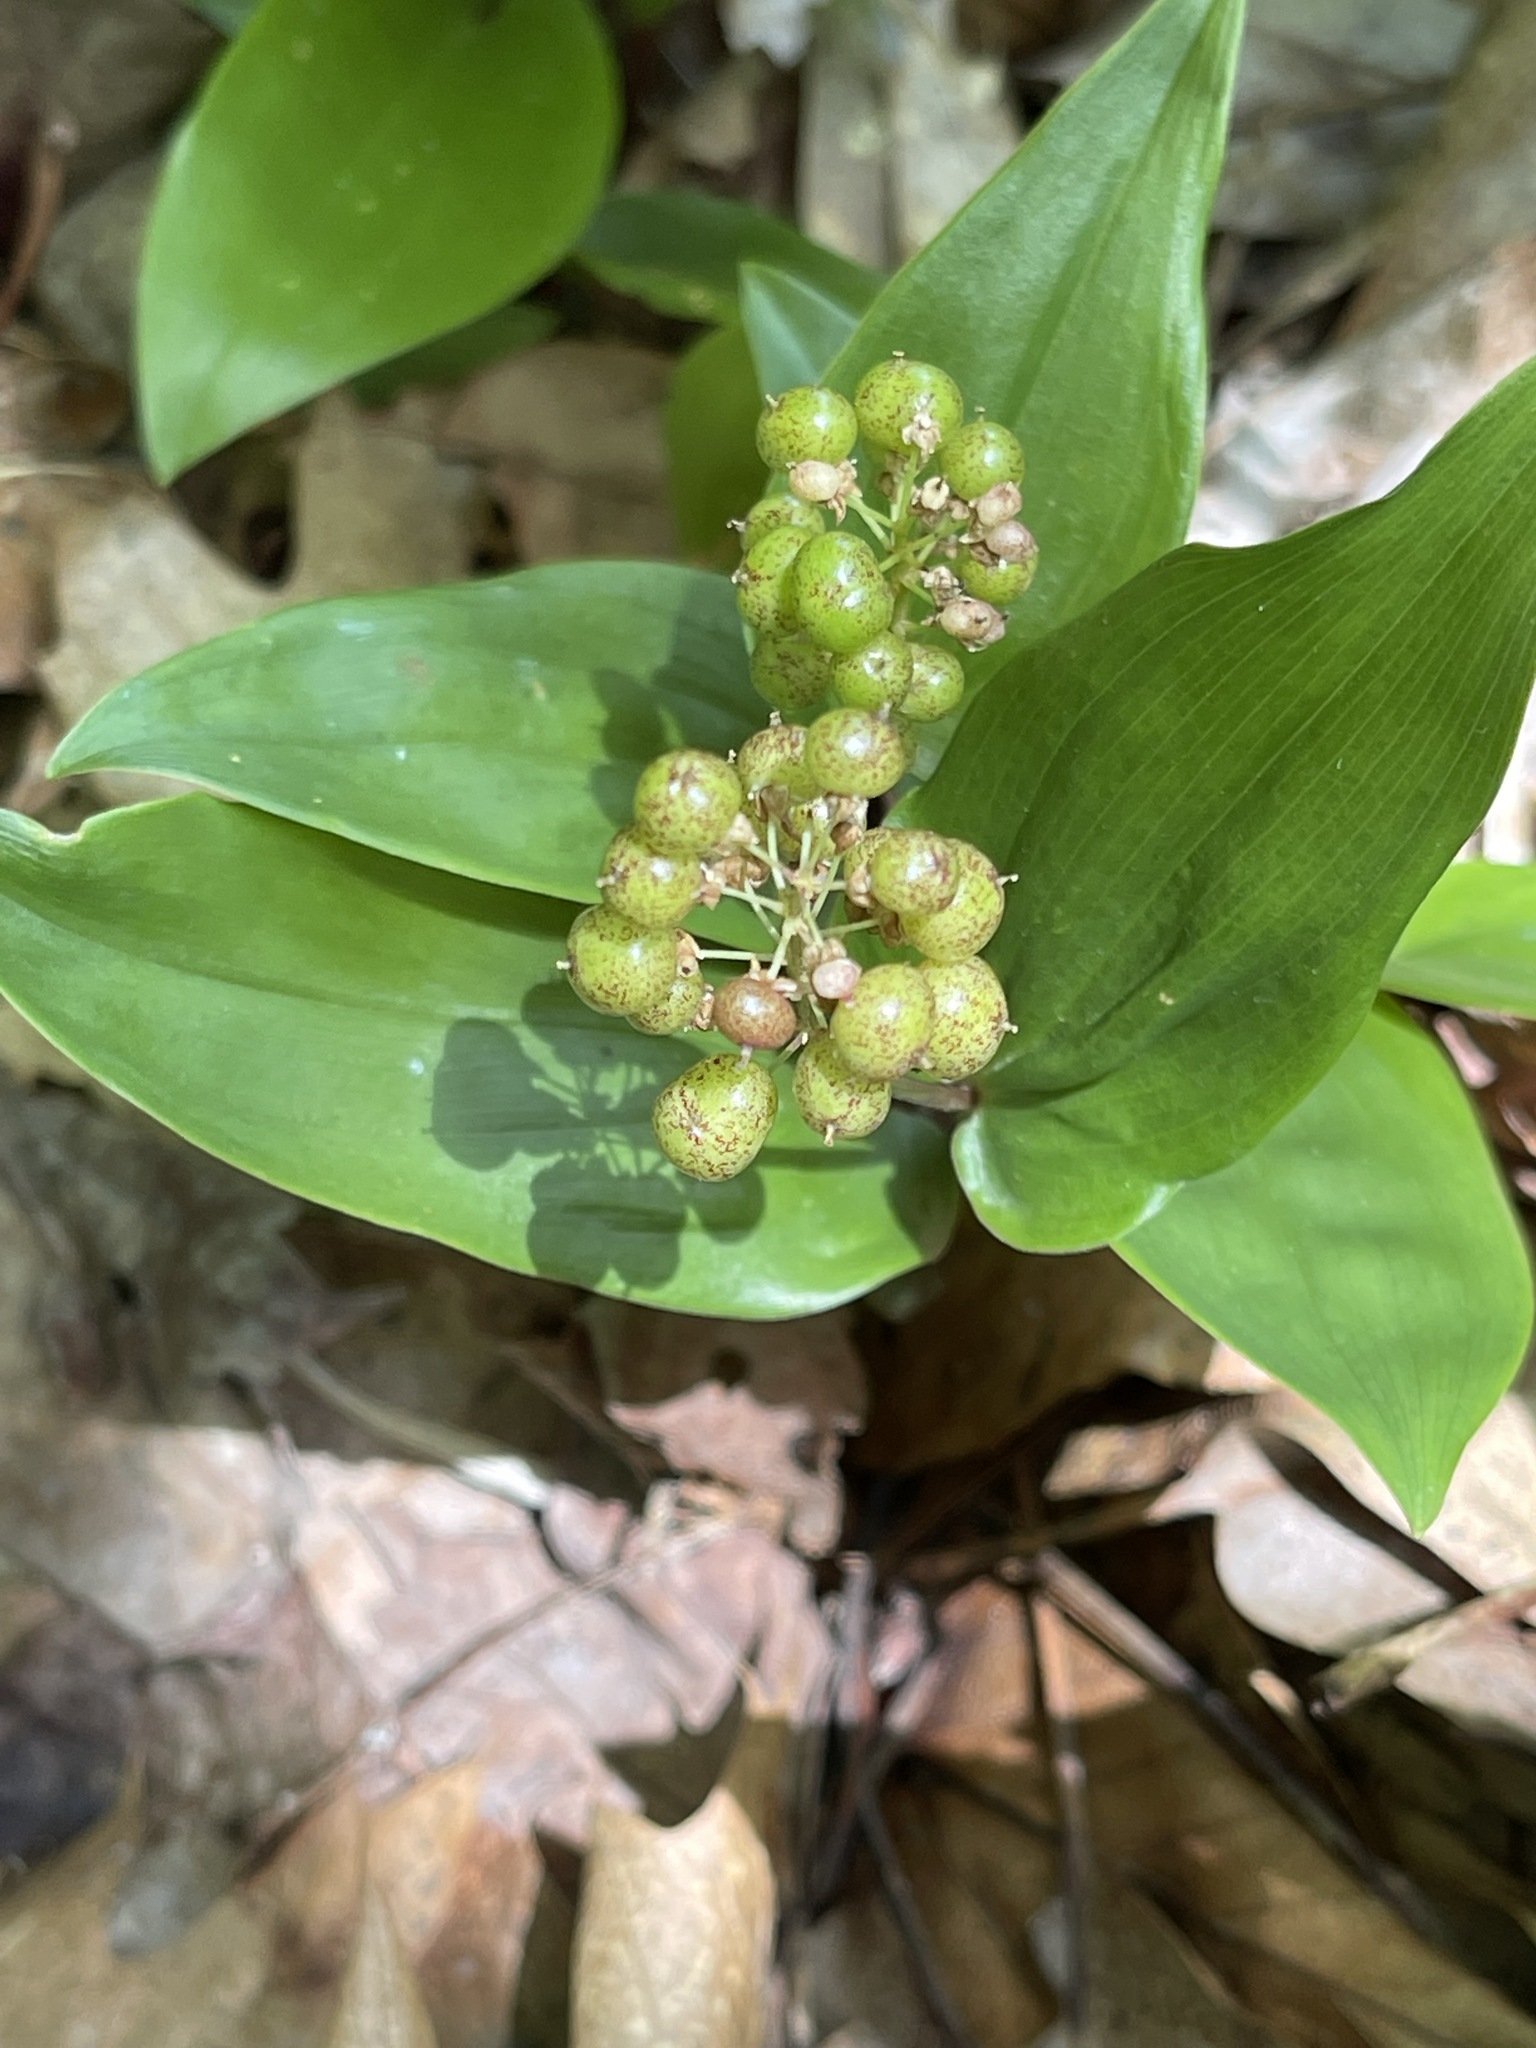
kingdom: Plantae
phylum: Tracheophyta
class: Liliopsida
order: Asparagales
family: Asparagaceae
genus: Maianthemum
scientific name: Maianthemum canadense
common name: False lily-of-the-valley
